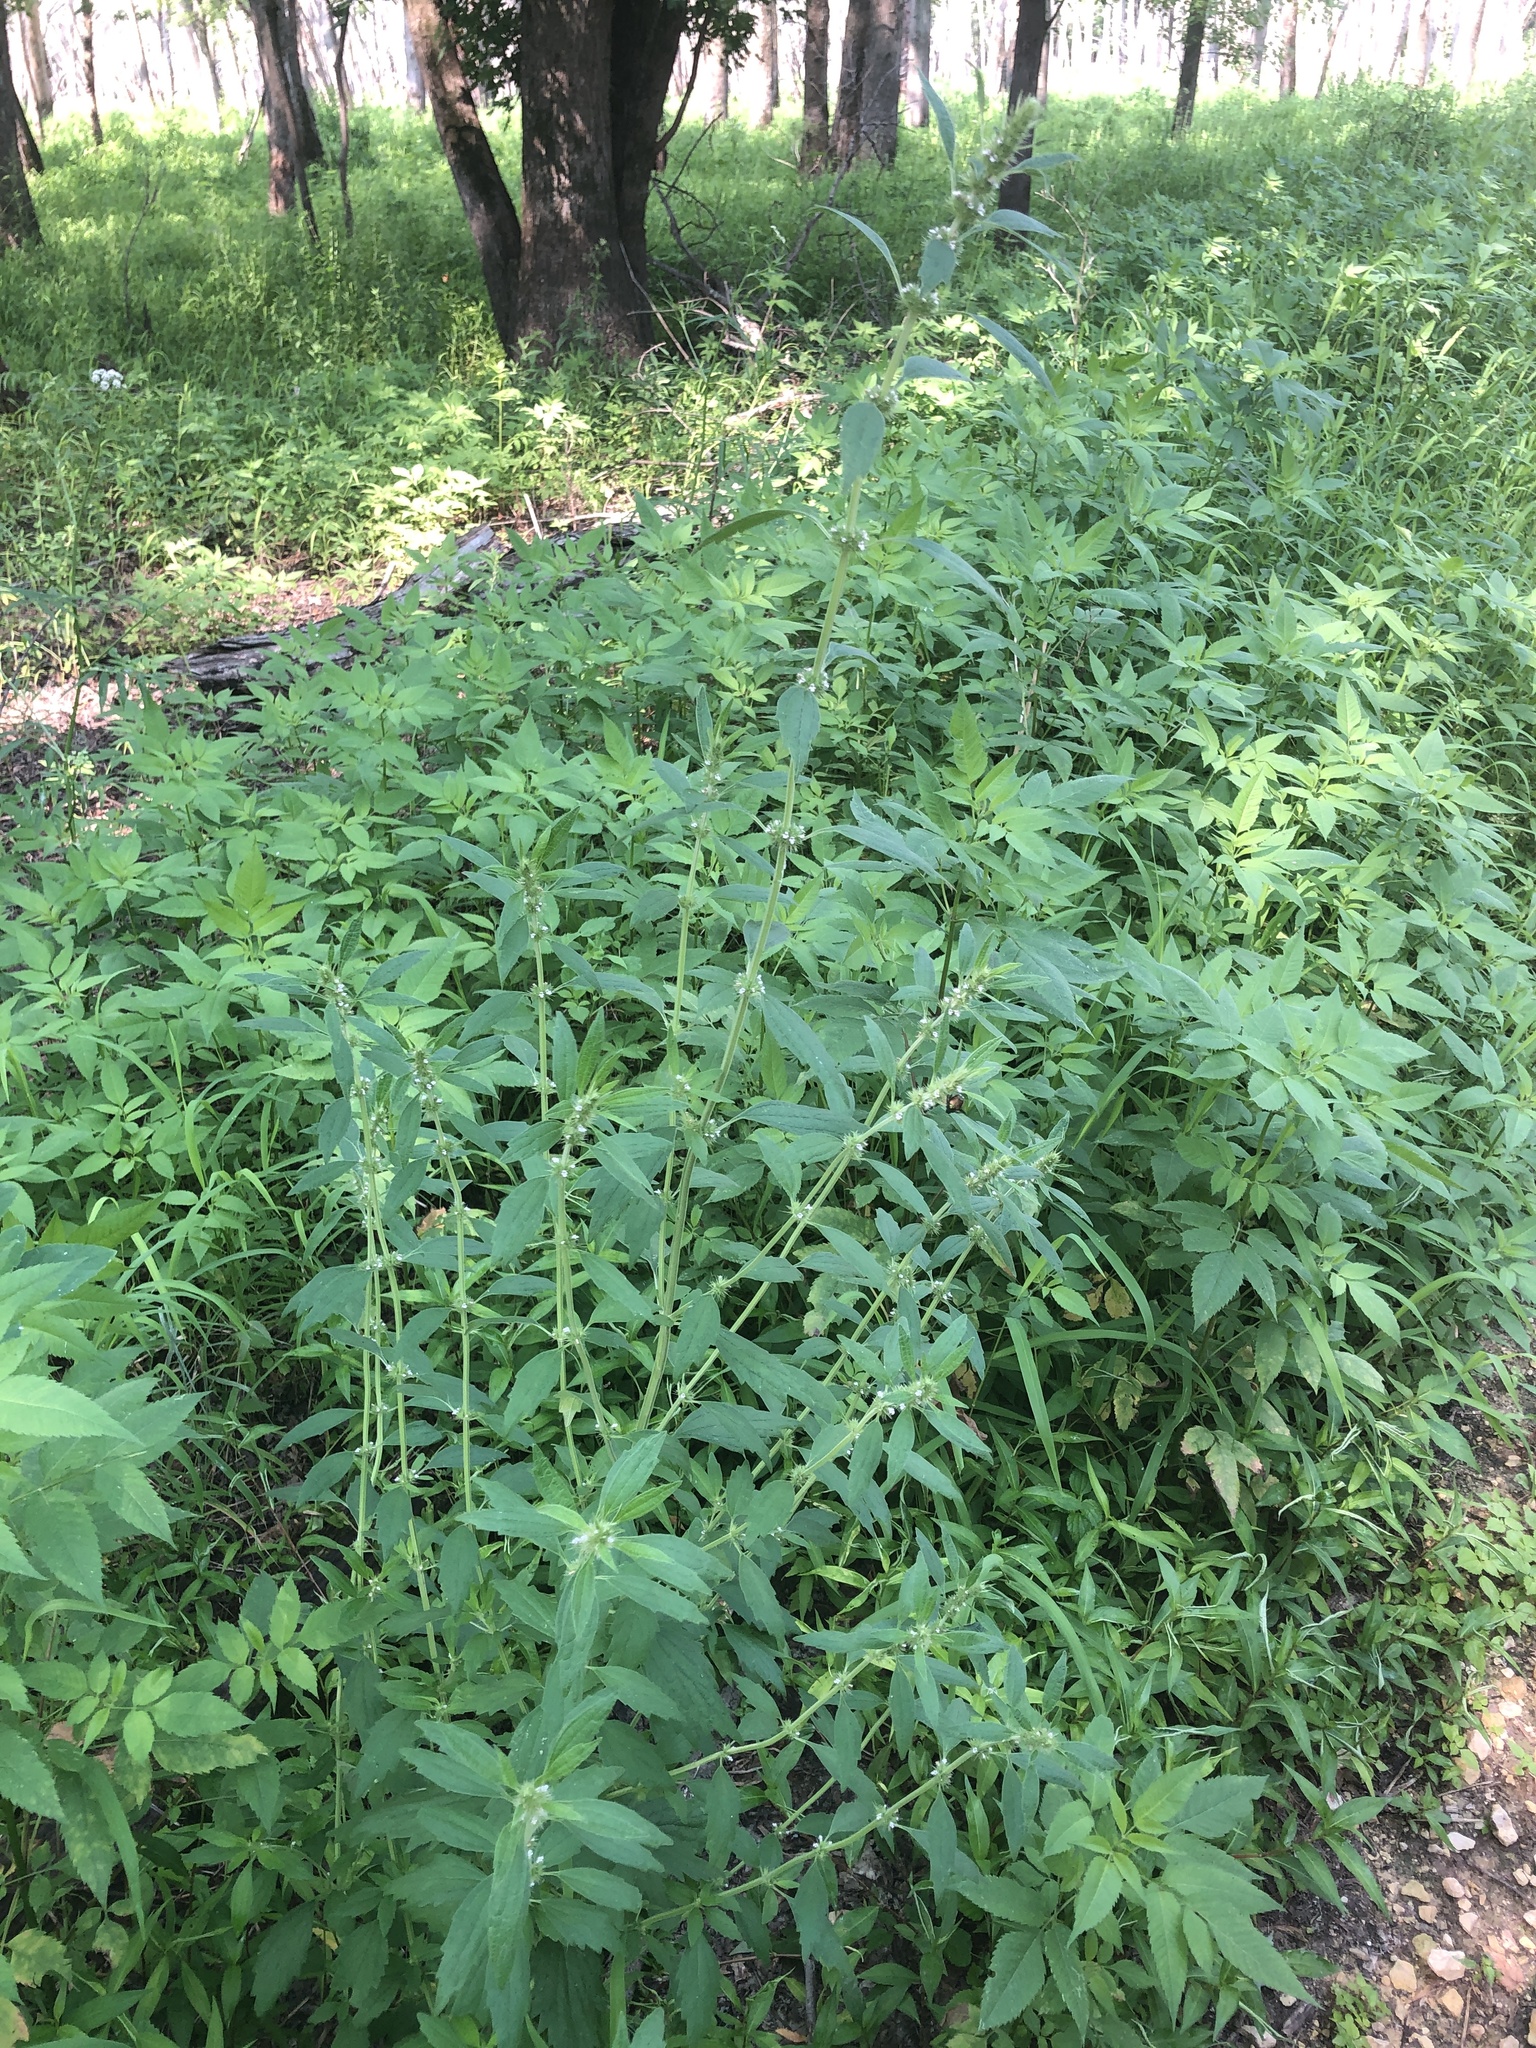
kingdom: Plantae
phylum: Tracheophyta
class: Magnoliopsida
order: Lamiales
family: Lamiaceae
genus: Chaiturus
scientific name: Chaiturus marrubiastrum
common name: Lion's tail
